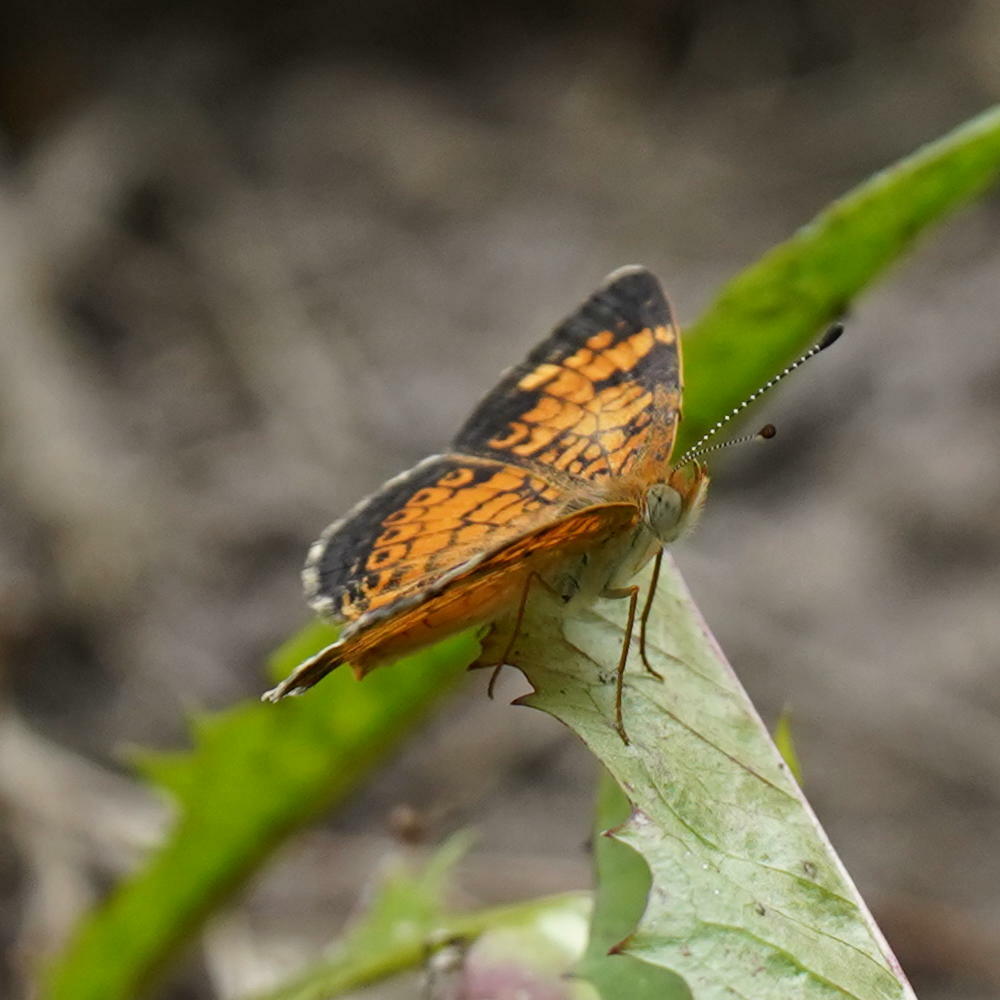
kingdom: Animalia
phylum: Arthropoda
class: Insecta
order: Lepidoptera
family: Nymphalidae
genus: Phyciodes
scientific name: Phyciodes tharos
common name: Pearl crescent
